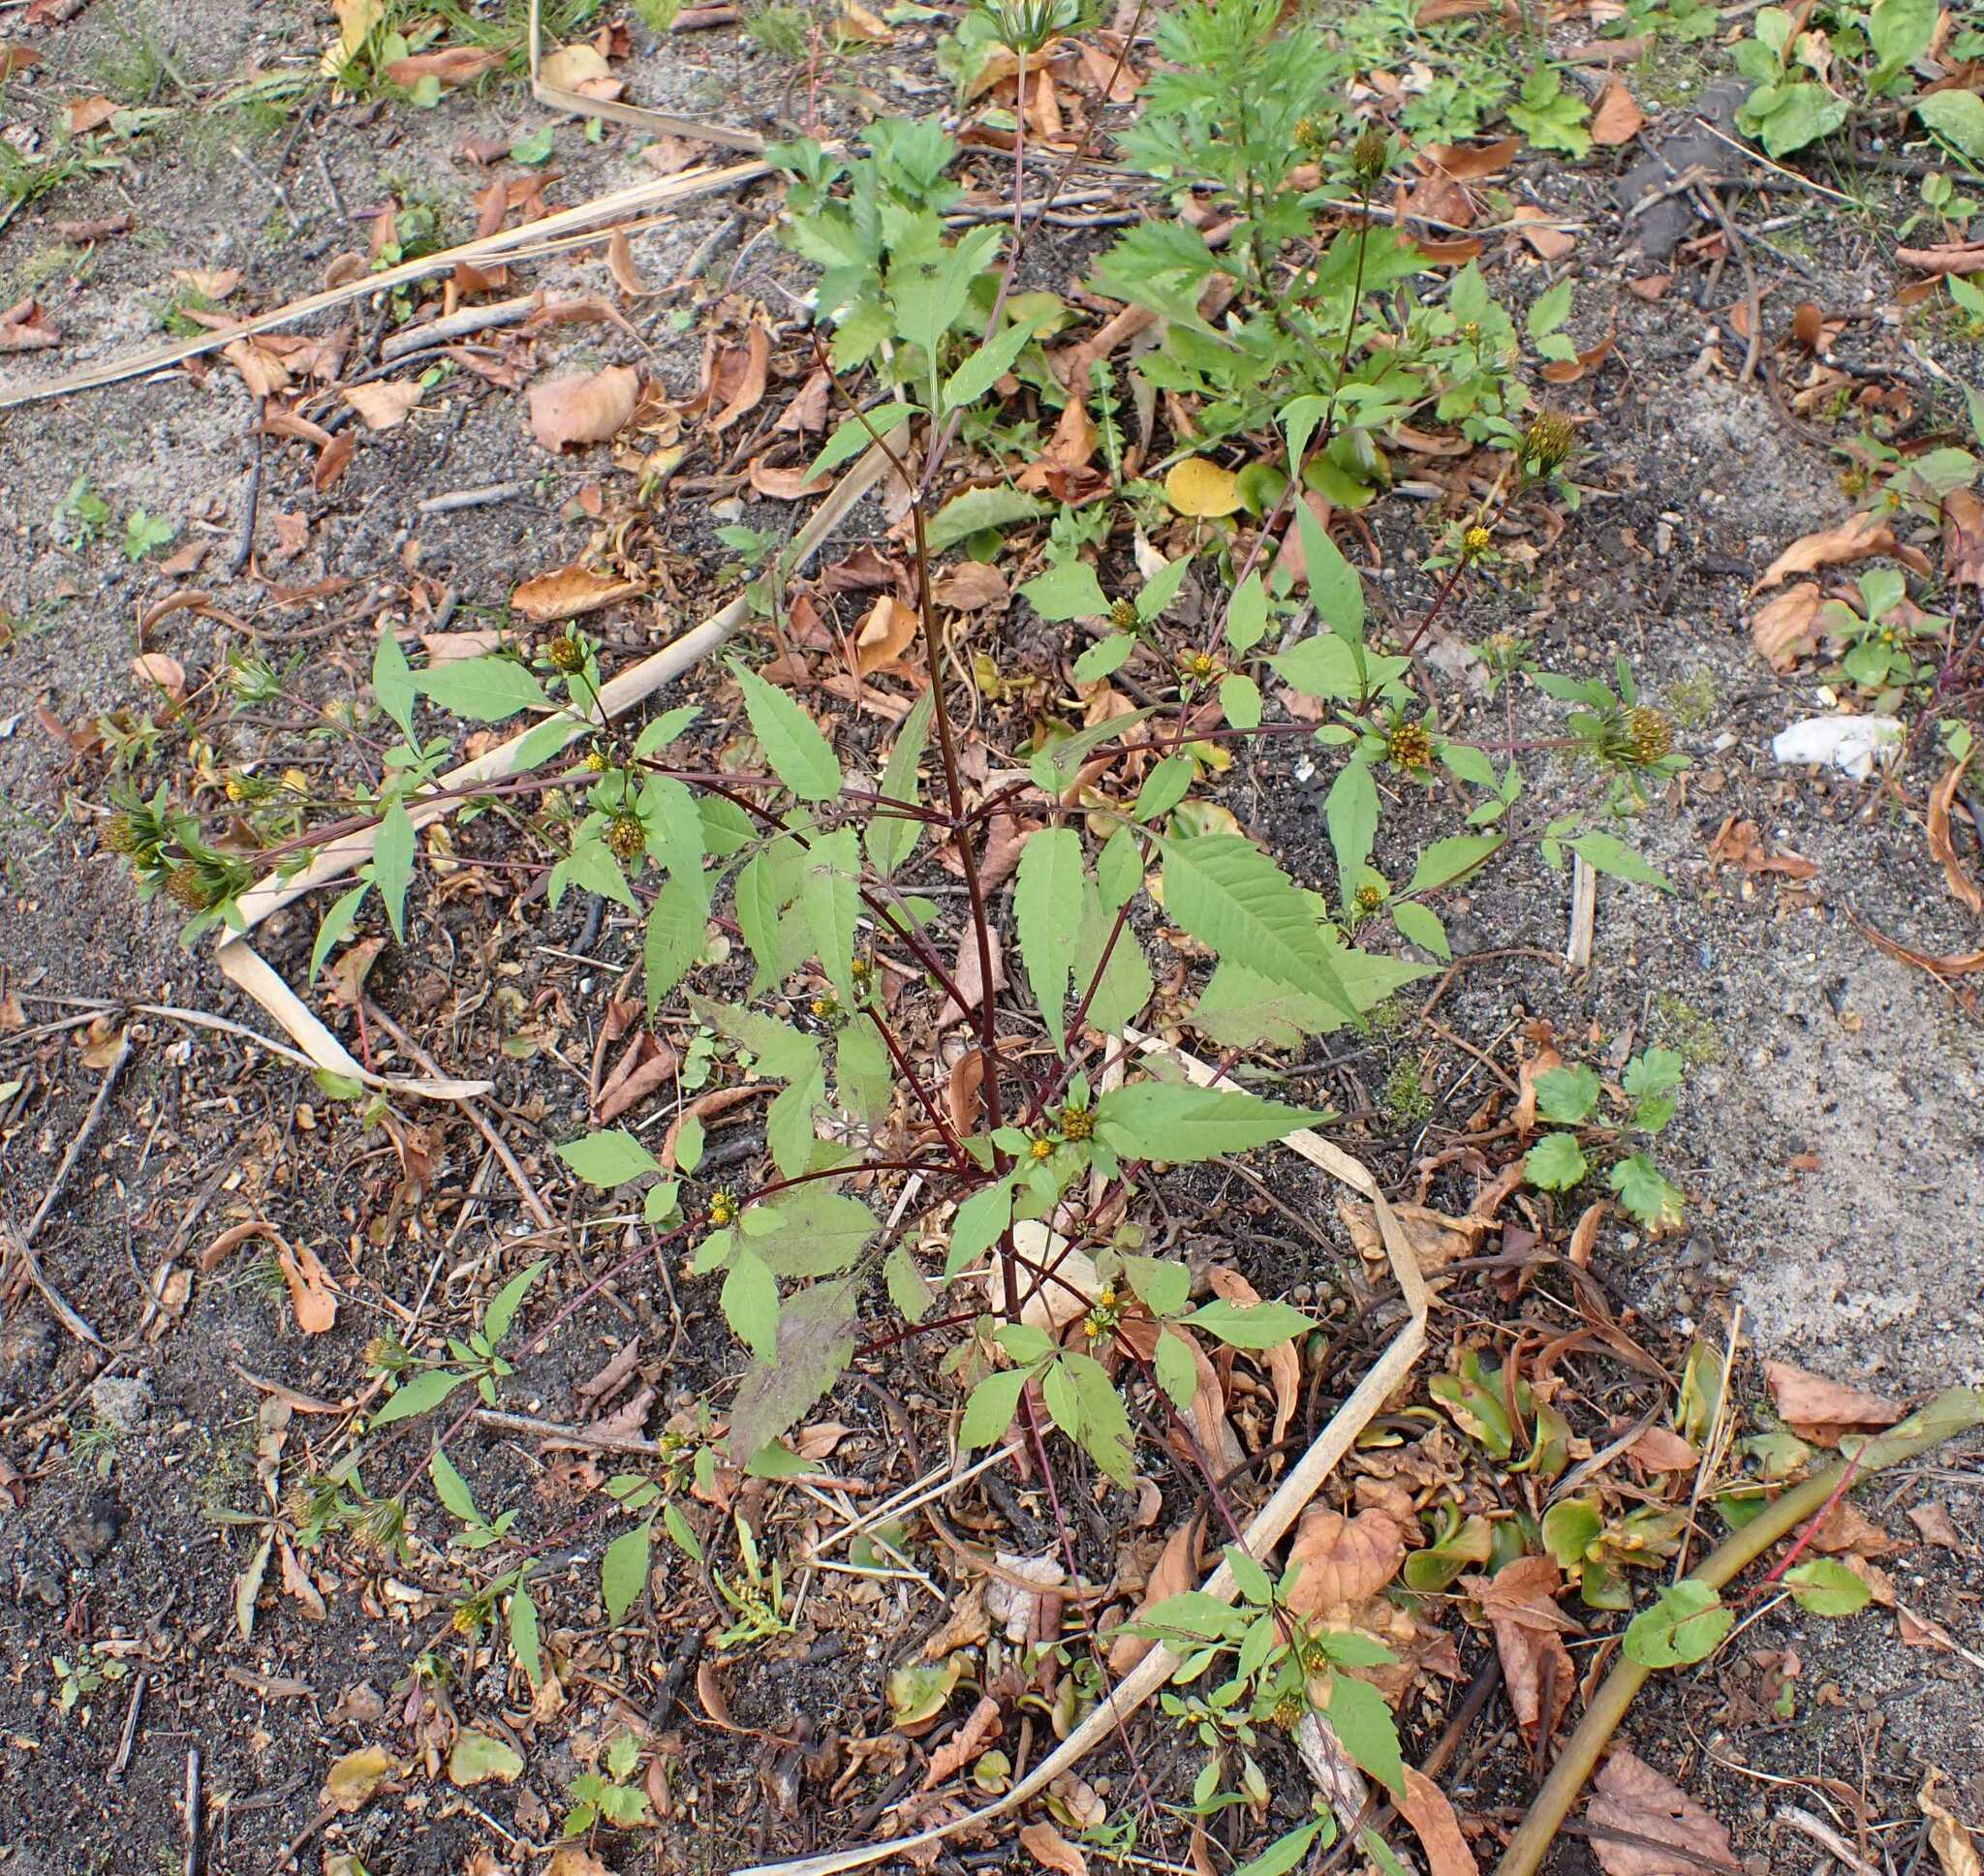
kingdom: Plantae
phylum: Tracheophyta
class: Magnoliopsida
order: Asterales
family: Asteraceae
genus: Bidens
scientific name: Bidens frondosa
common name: Beggarticks
